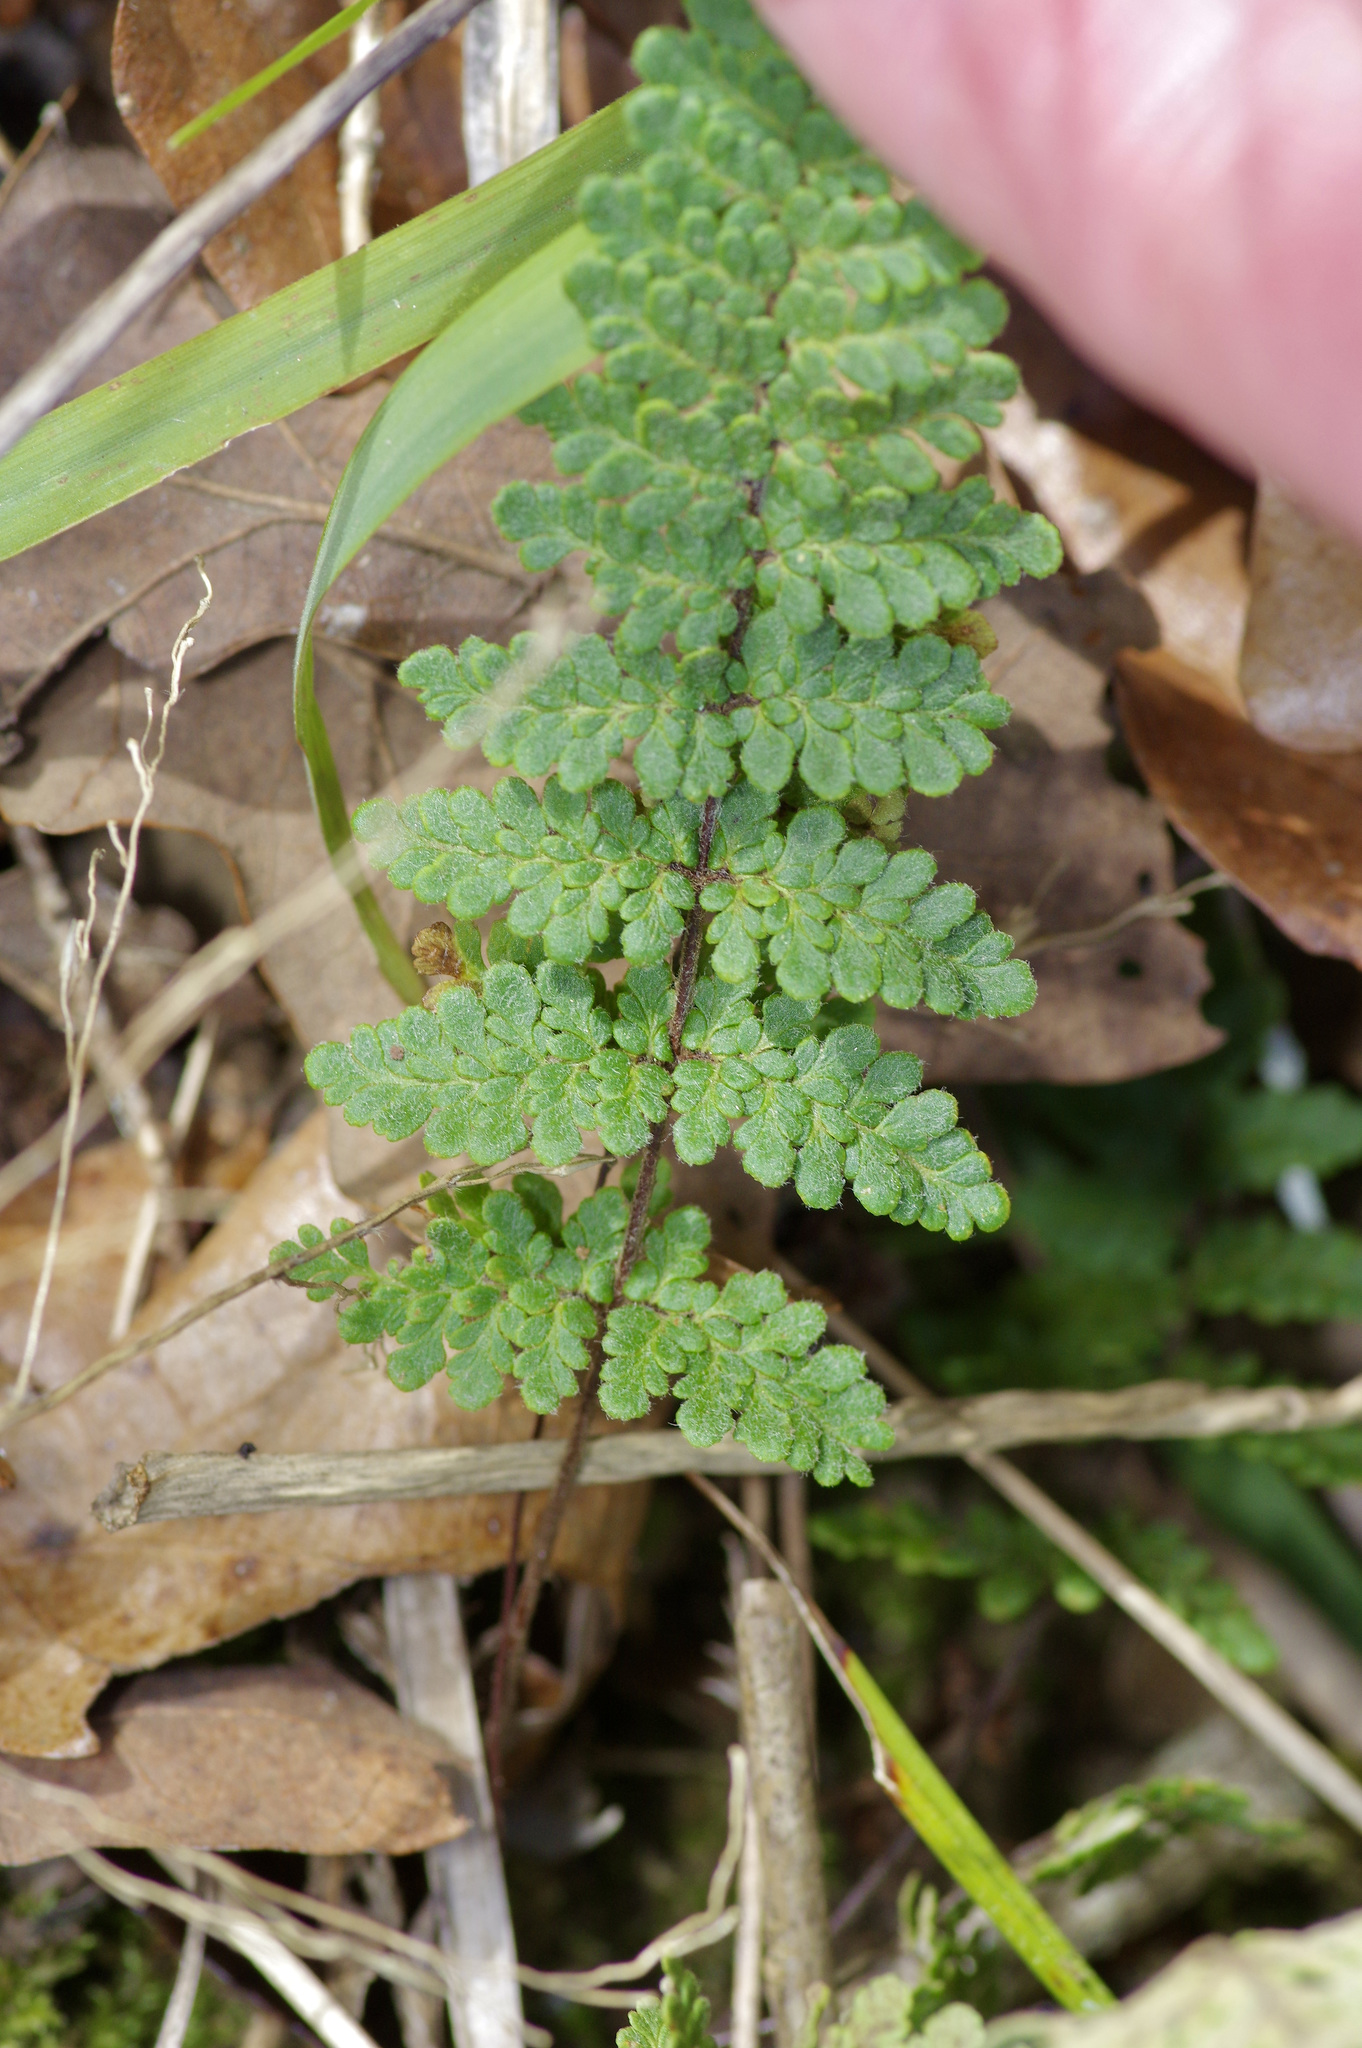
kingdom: Plantae
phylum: Tracheophyta
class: Polypodiopsida
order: Polypodiales
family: Pteridaceae
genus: Myriopteris
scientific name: Myriopteris scabra
